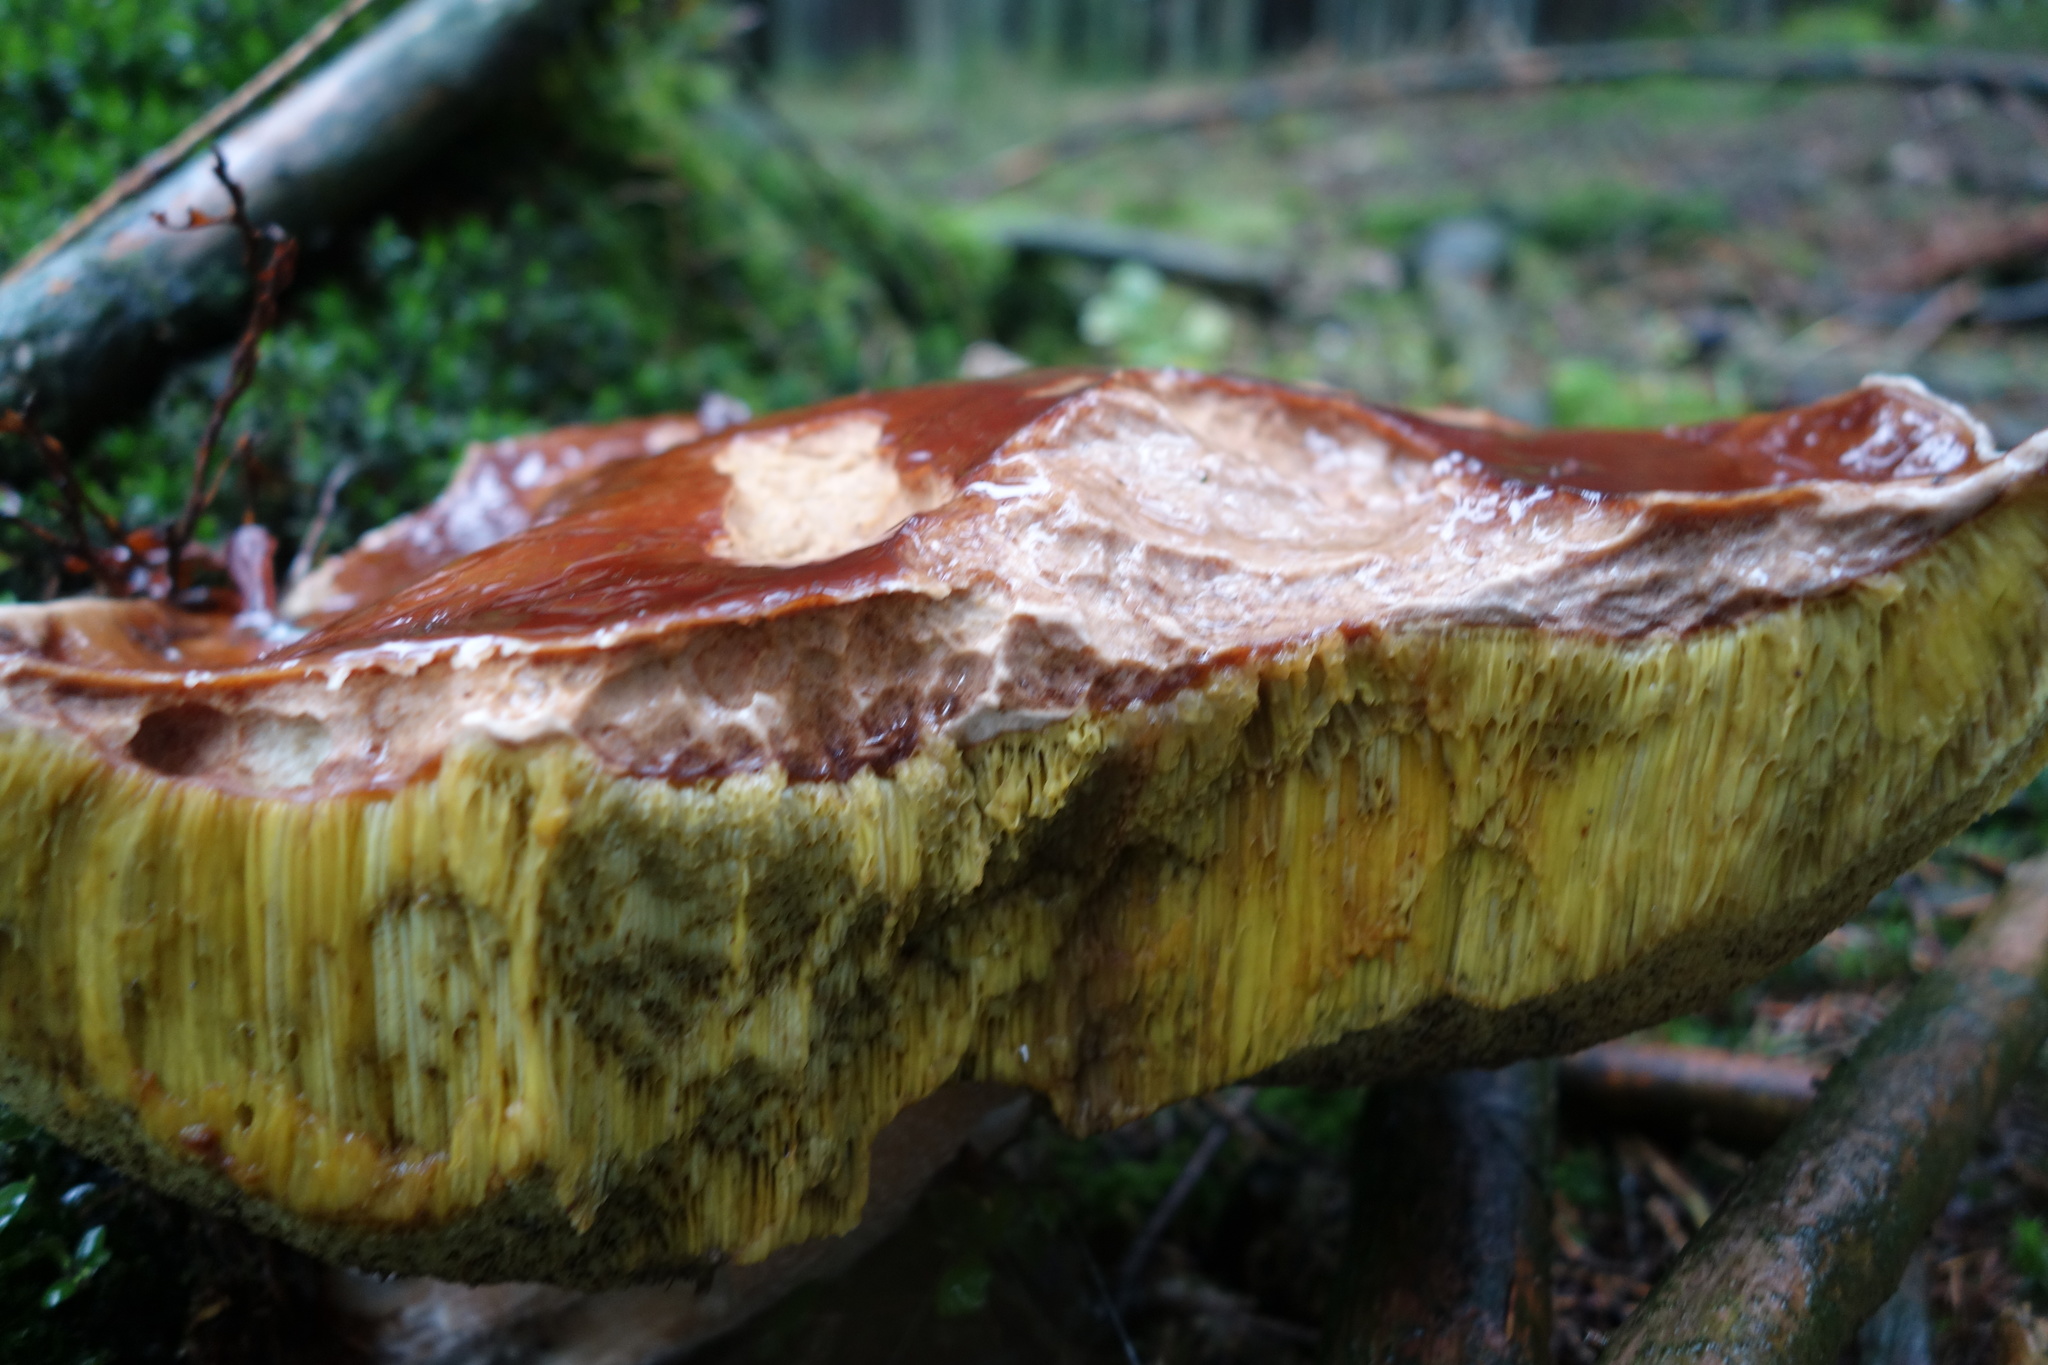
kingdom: Fungi
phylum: Basidiomycota
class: Agaricomycetes
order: Boletales
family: Boletaceae
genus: Boletus
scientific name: Boletus edulis
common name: Cep
